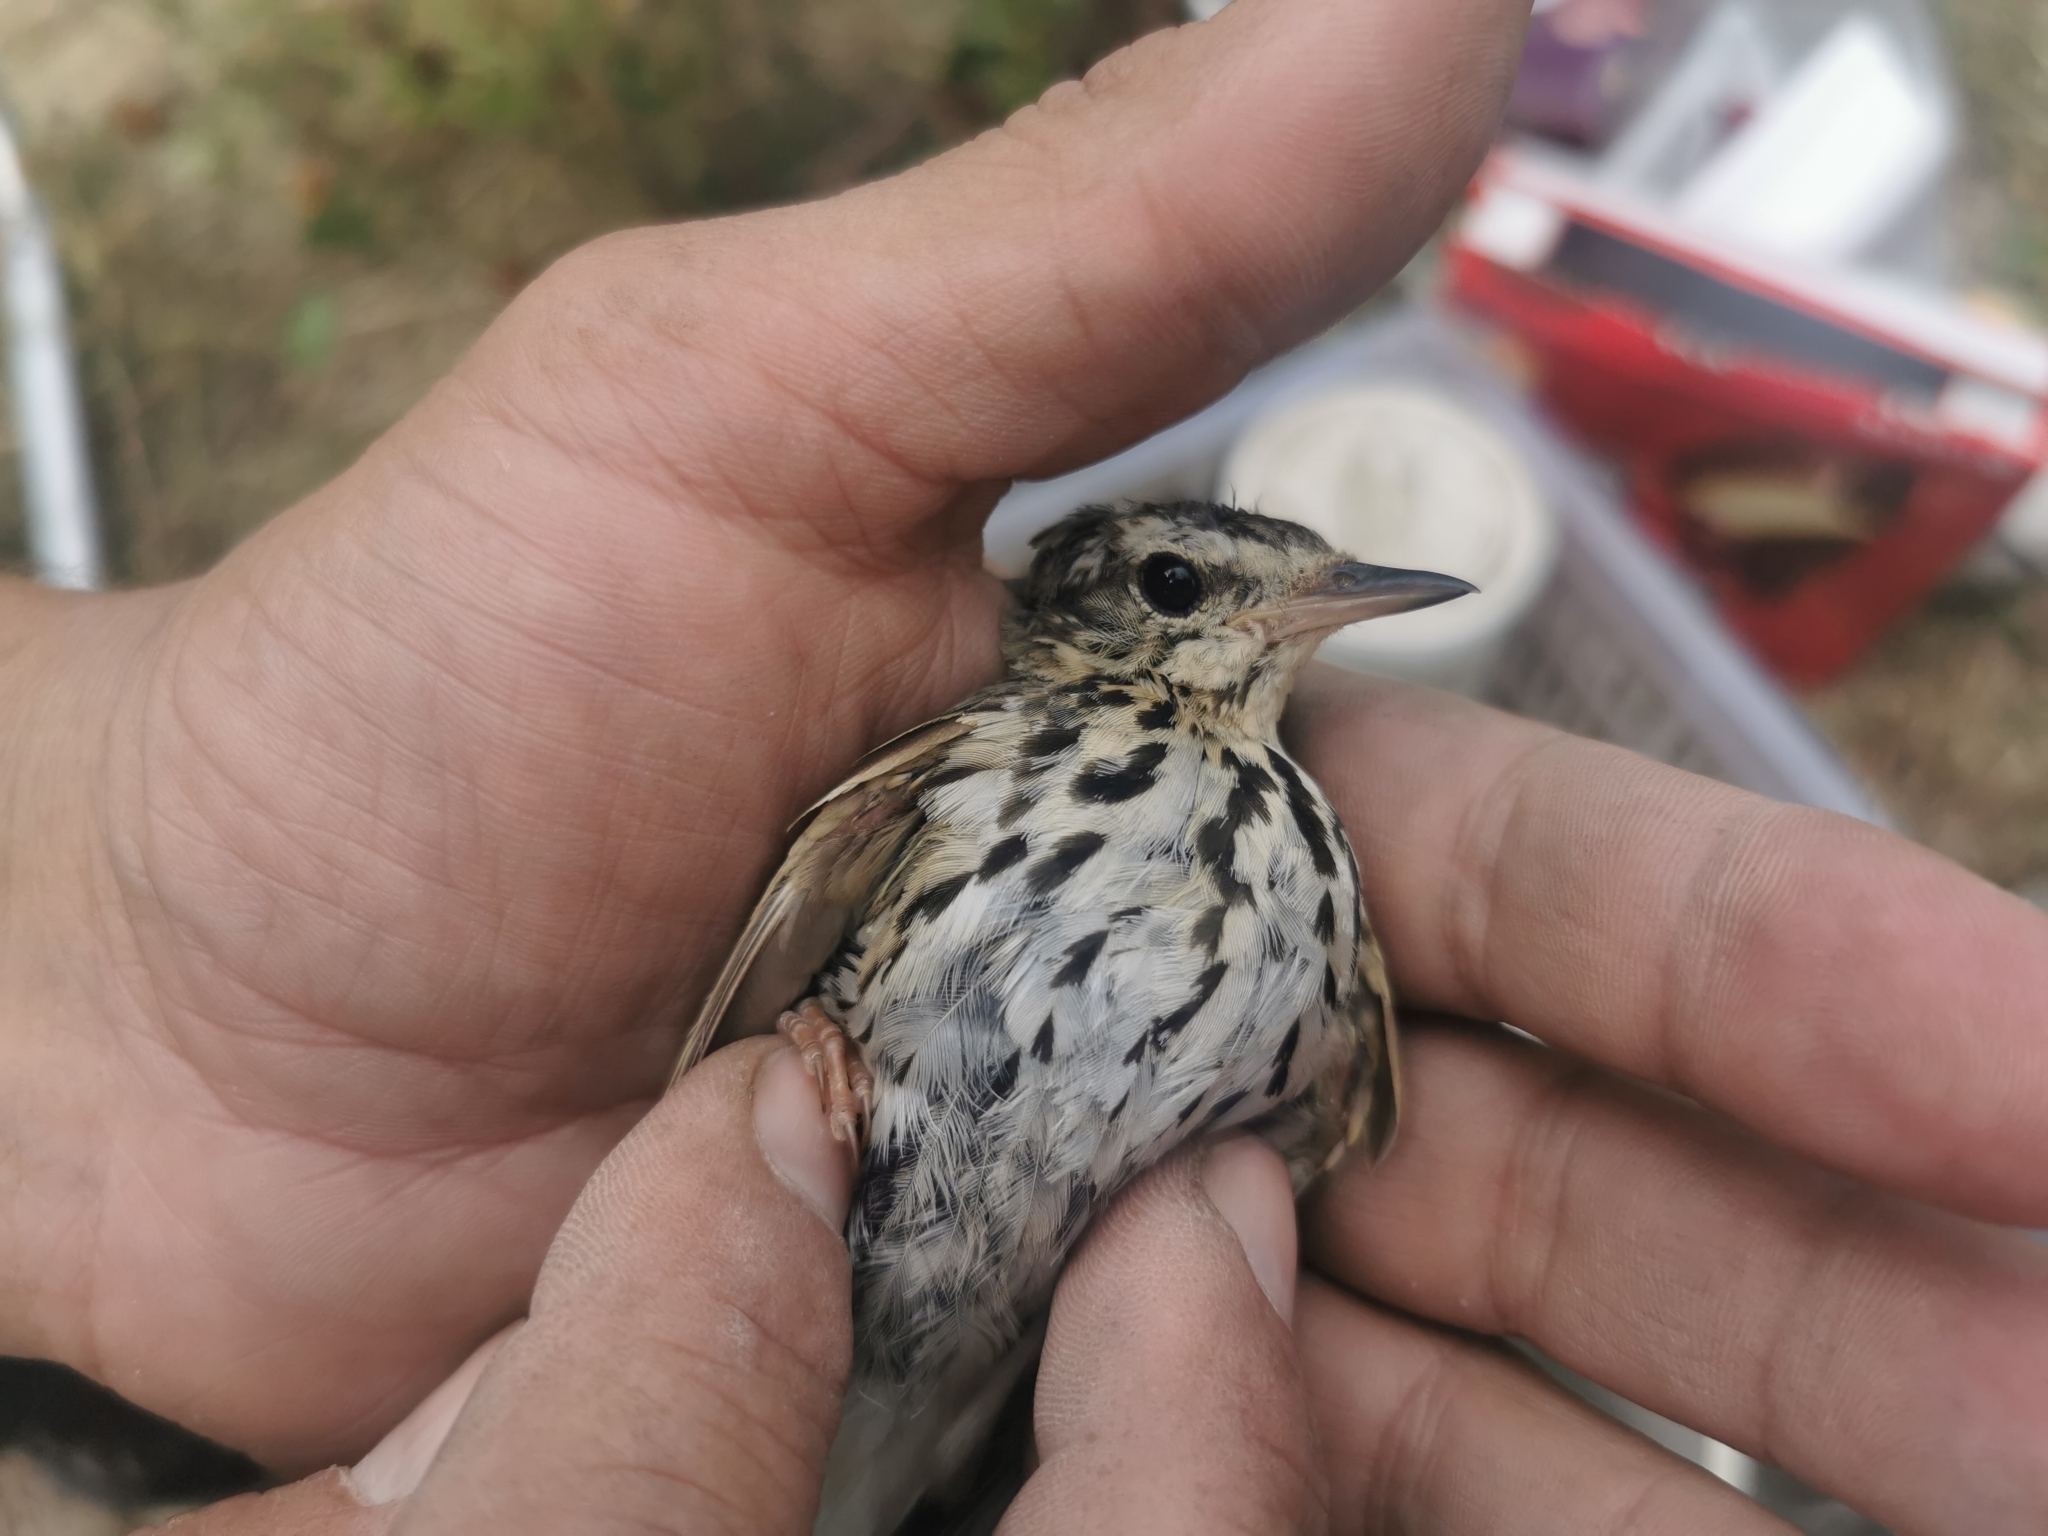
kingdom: Animalia
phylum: Chordata
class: Aves
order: Passeriformes
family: Motacillidae
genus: Anthus
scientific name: Anthus hodgsoni
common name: Olive-backed pipit
